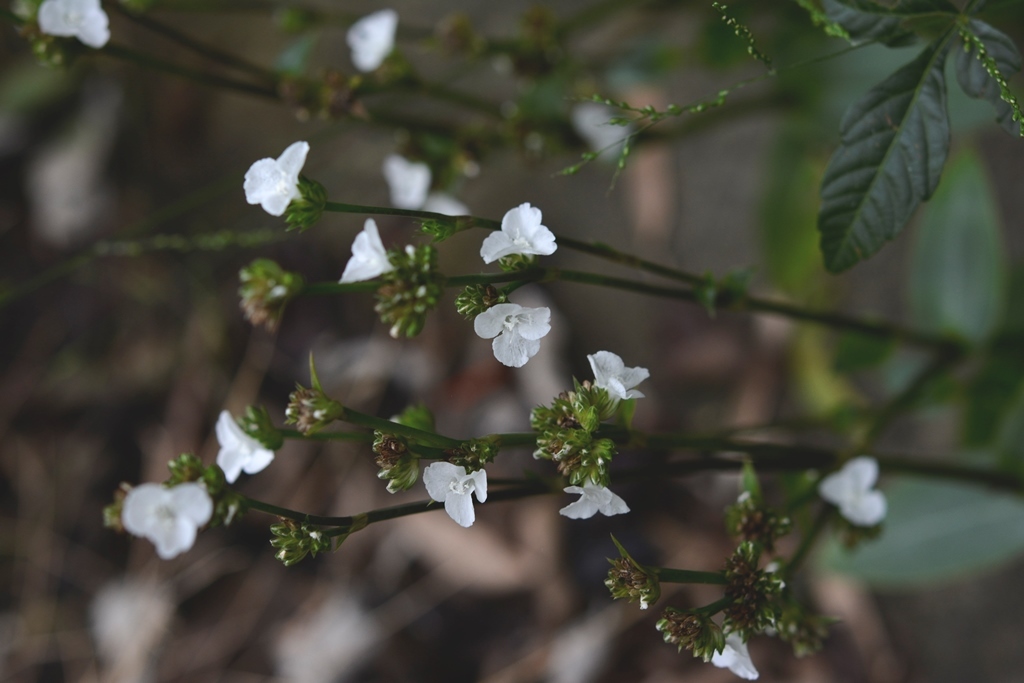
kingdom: Plantae
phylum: Tracheophyta
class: Liliopsida
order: Commelinales
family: Commelinaceae
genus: Callisia
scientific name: Callisia gentlei
